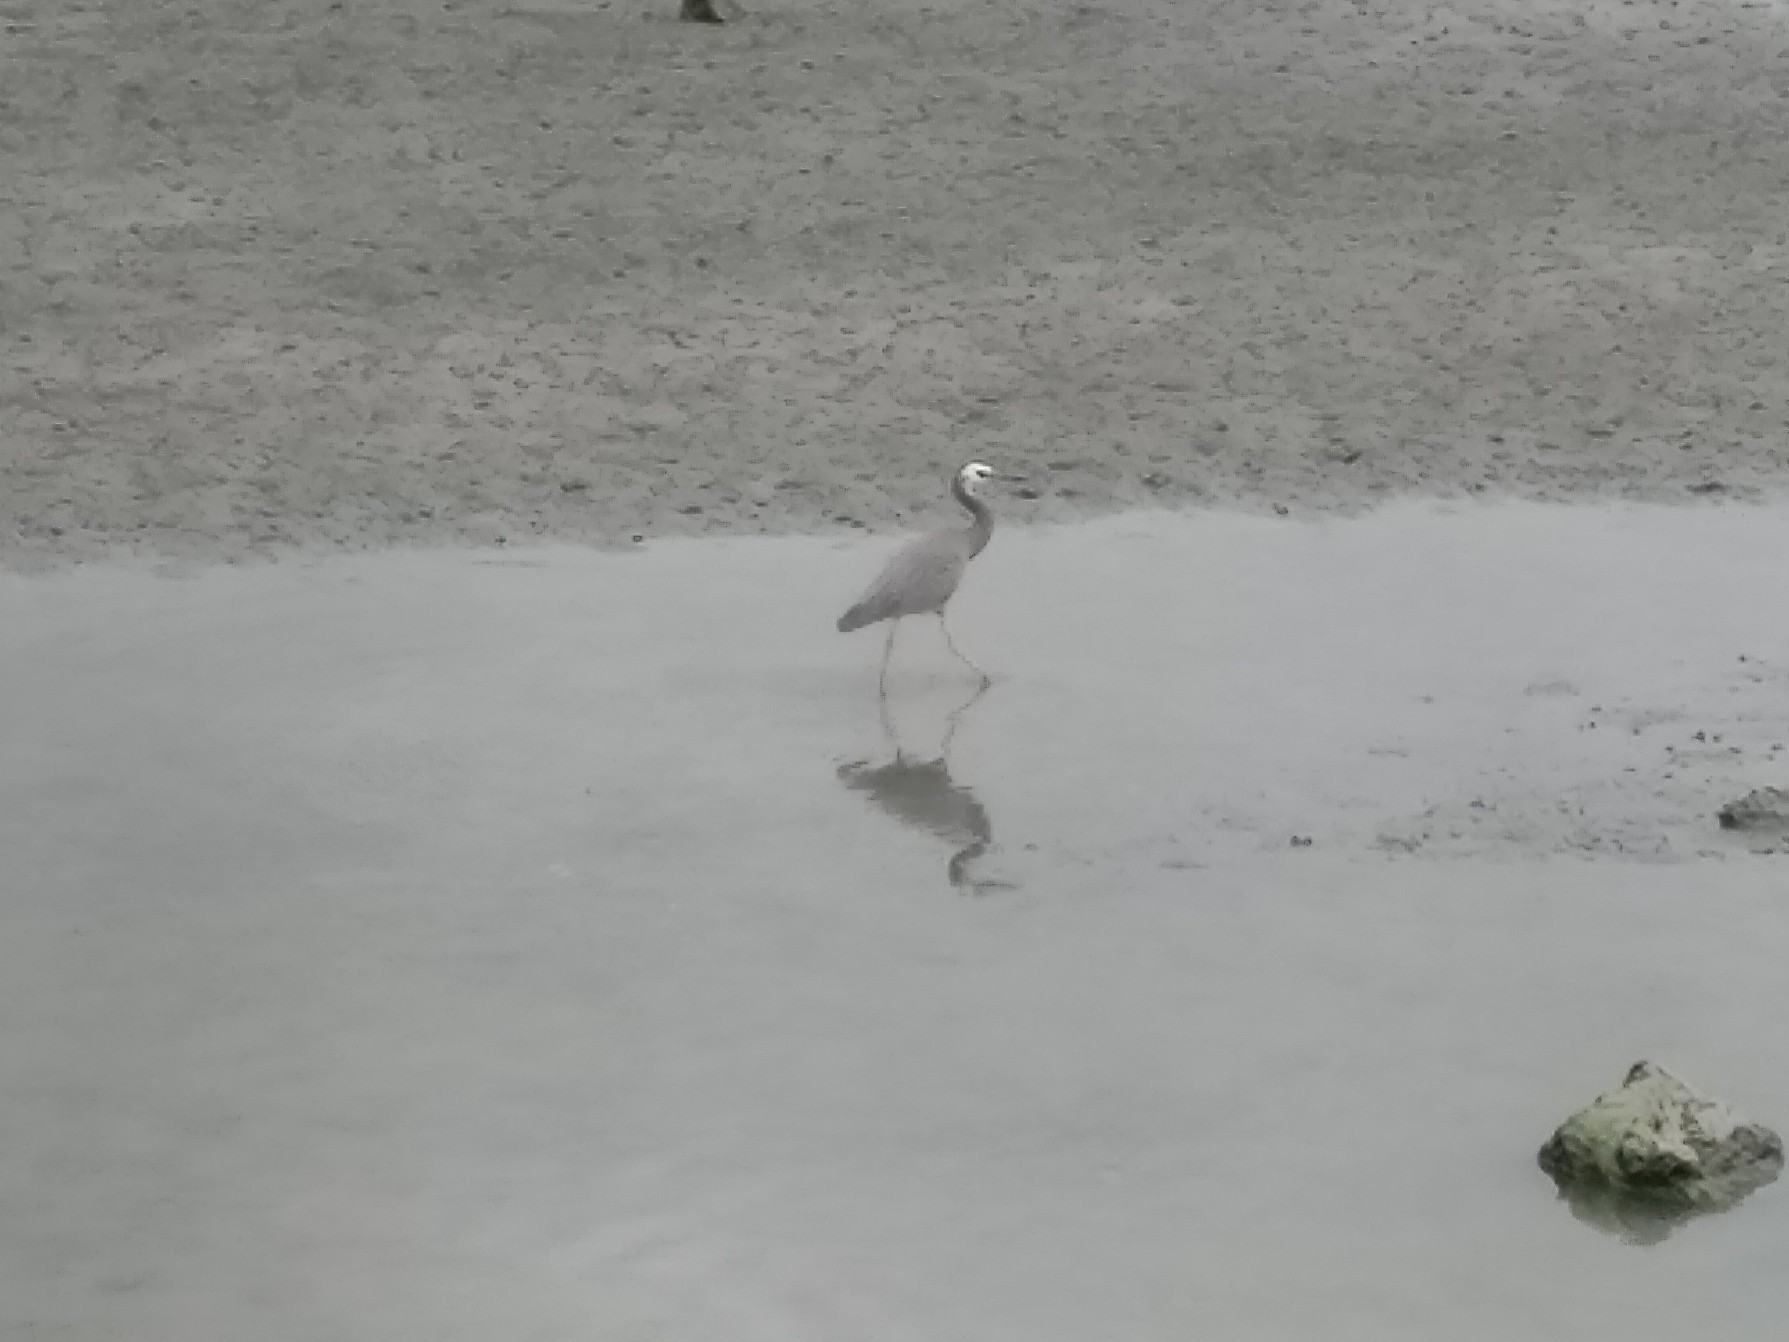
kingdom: Animalia
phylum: Chordata
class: Aves
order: Pelecaniformes
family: Ardeidae
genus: Egretta
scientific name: Egretta novaehollandiae
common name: White-faced heron
